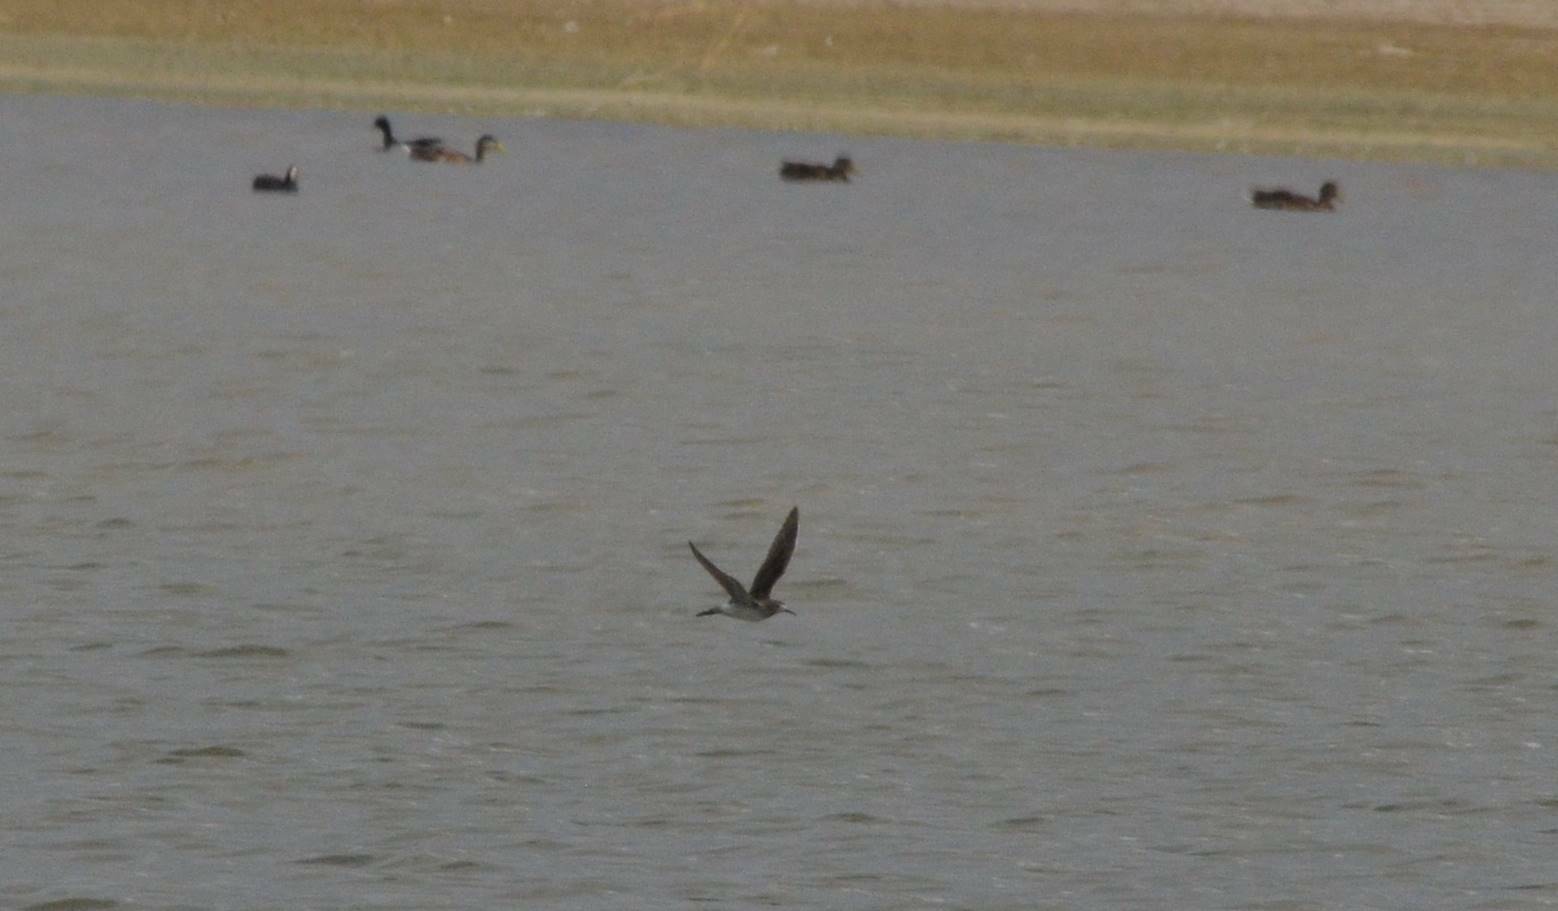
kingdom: Animalia
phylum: Chordata
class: Aves
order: Charadriiformes
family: Scolopacidae
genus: Calidris
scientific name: Calidris pugnax
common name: Ruff
